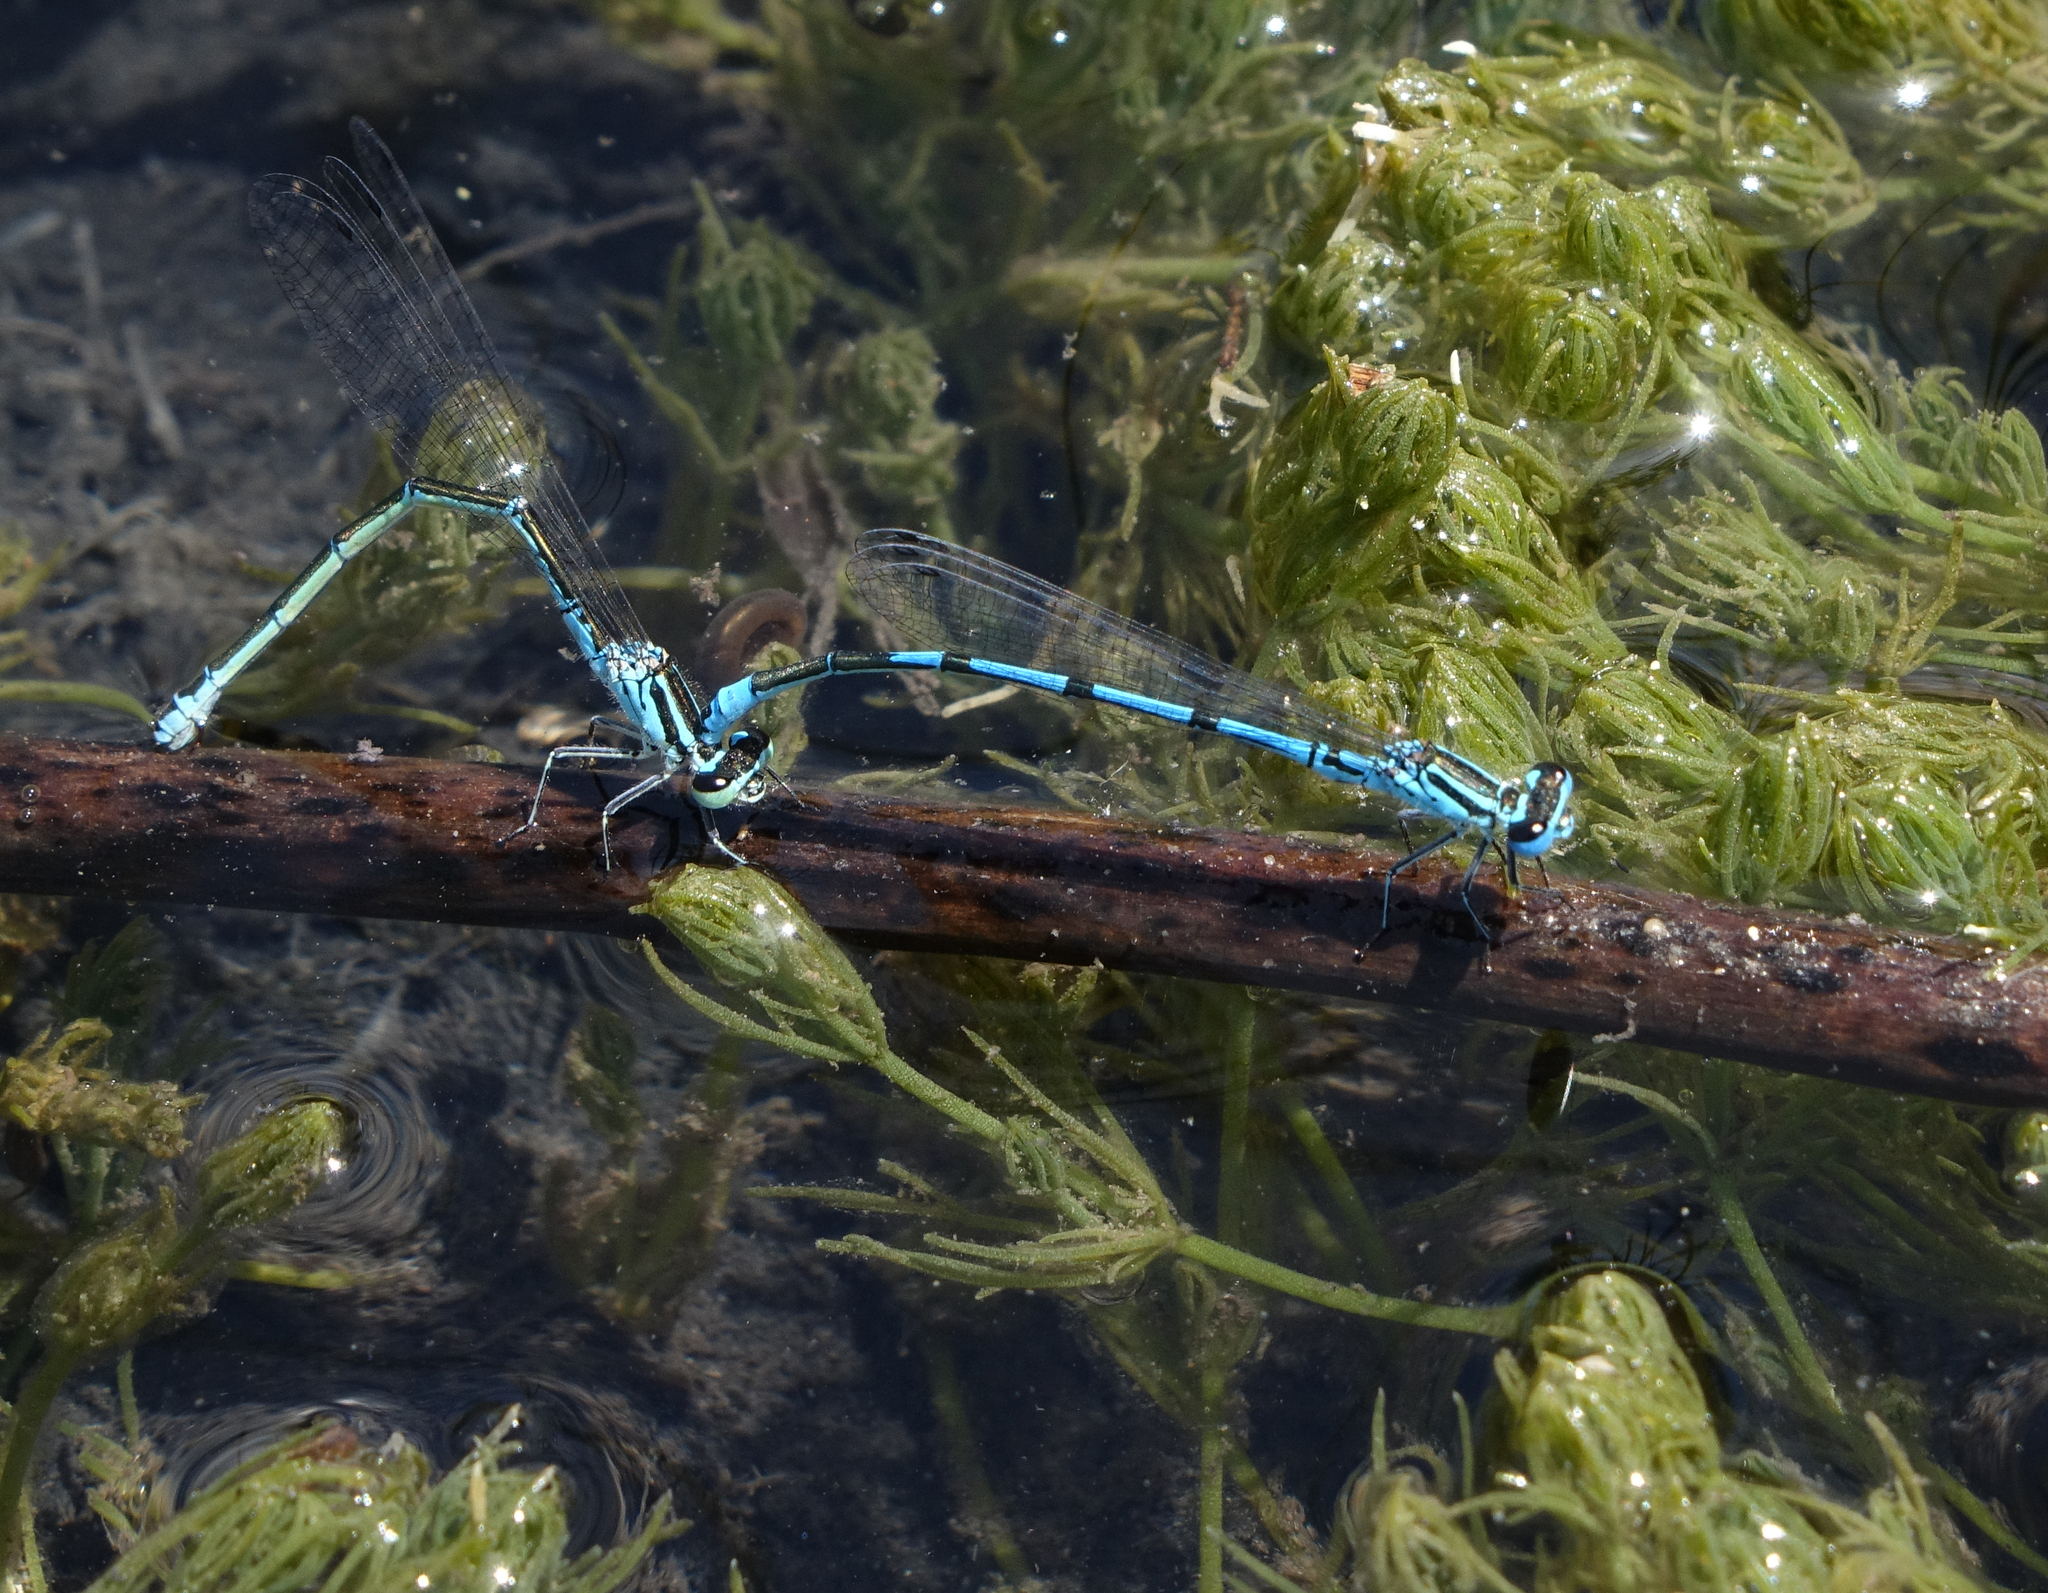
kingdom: Animalia
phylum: Arthropoda
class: Insecta
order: Odonata
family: Coenagrionidae
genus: Coenagrion
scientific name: Coenagrion puella
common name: Azure damselfly
